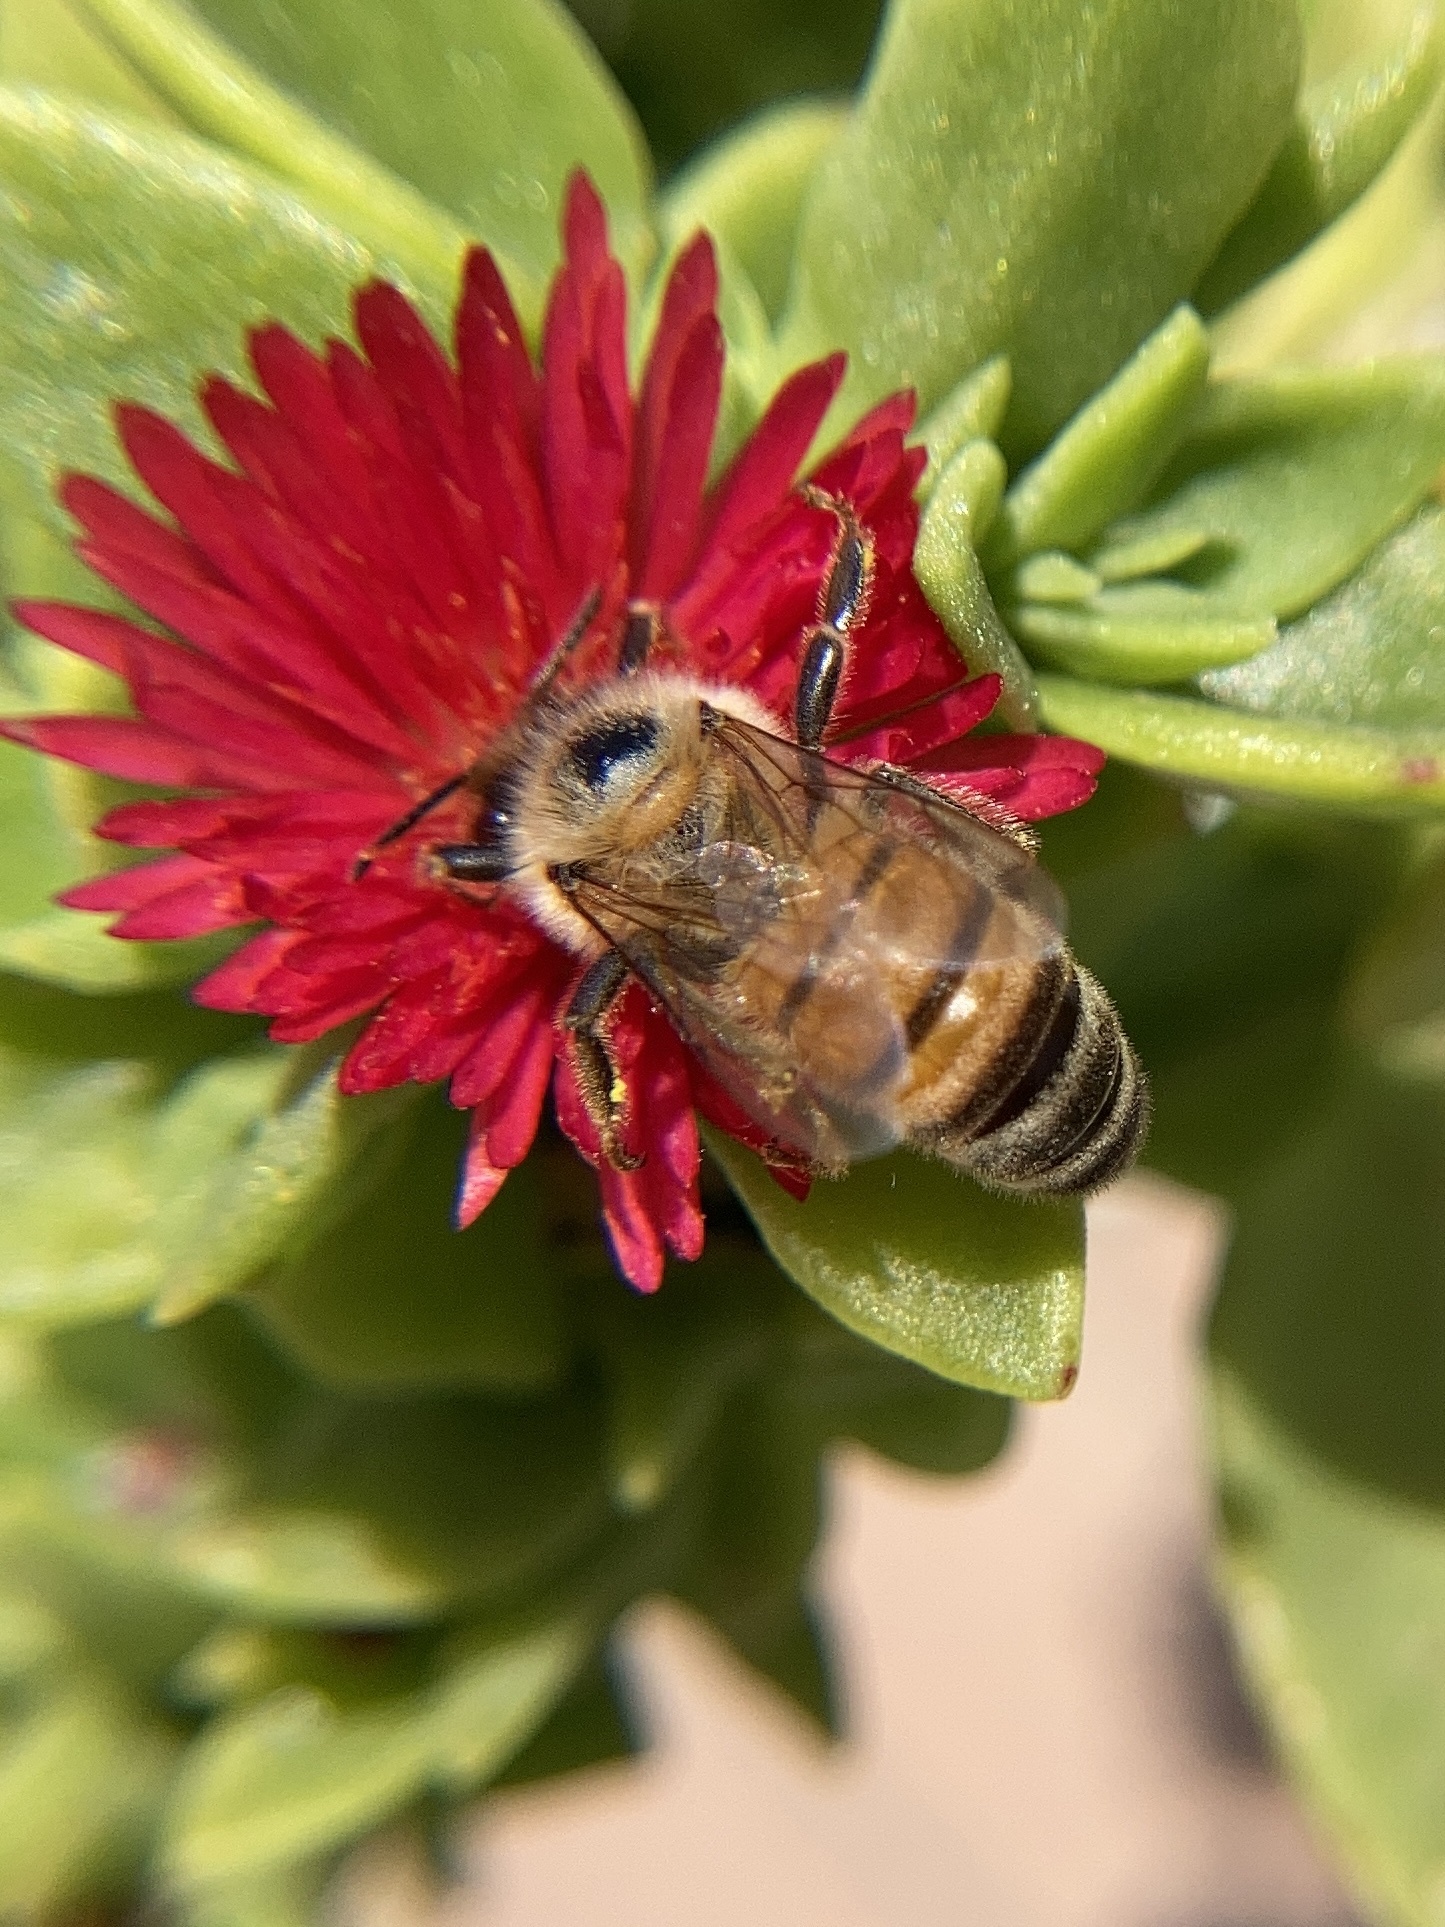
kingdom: Animalia
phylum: Arthropoda
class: Insecta
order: Hymenoptera
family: Apidae
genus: Apis
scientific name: Apis mellifera
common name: Honey bee
